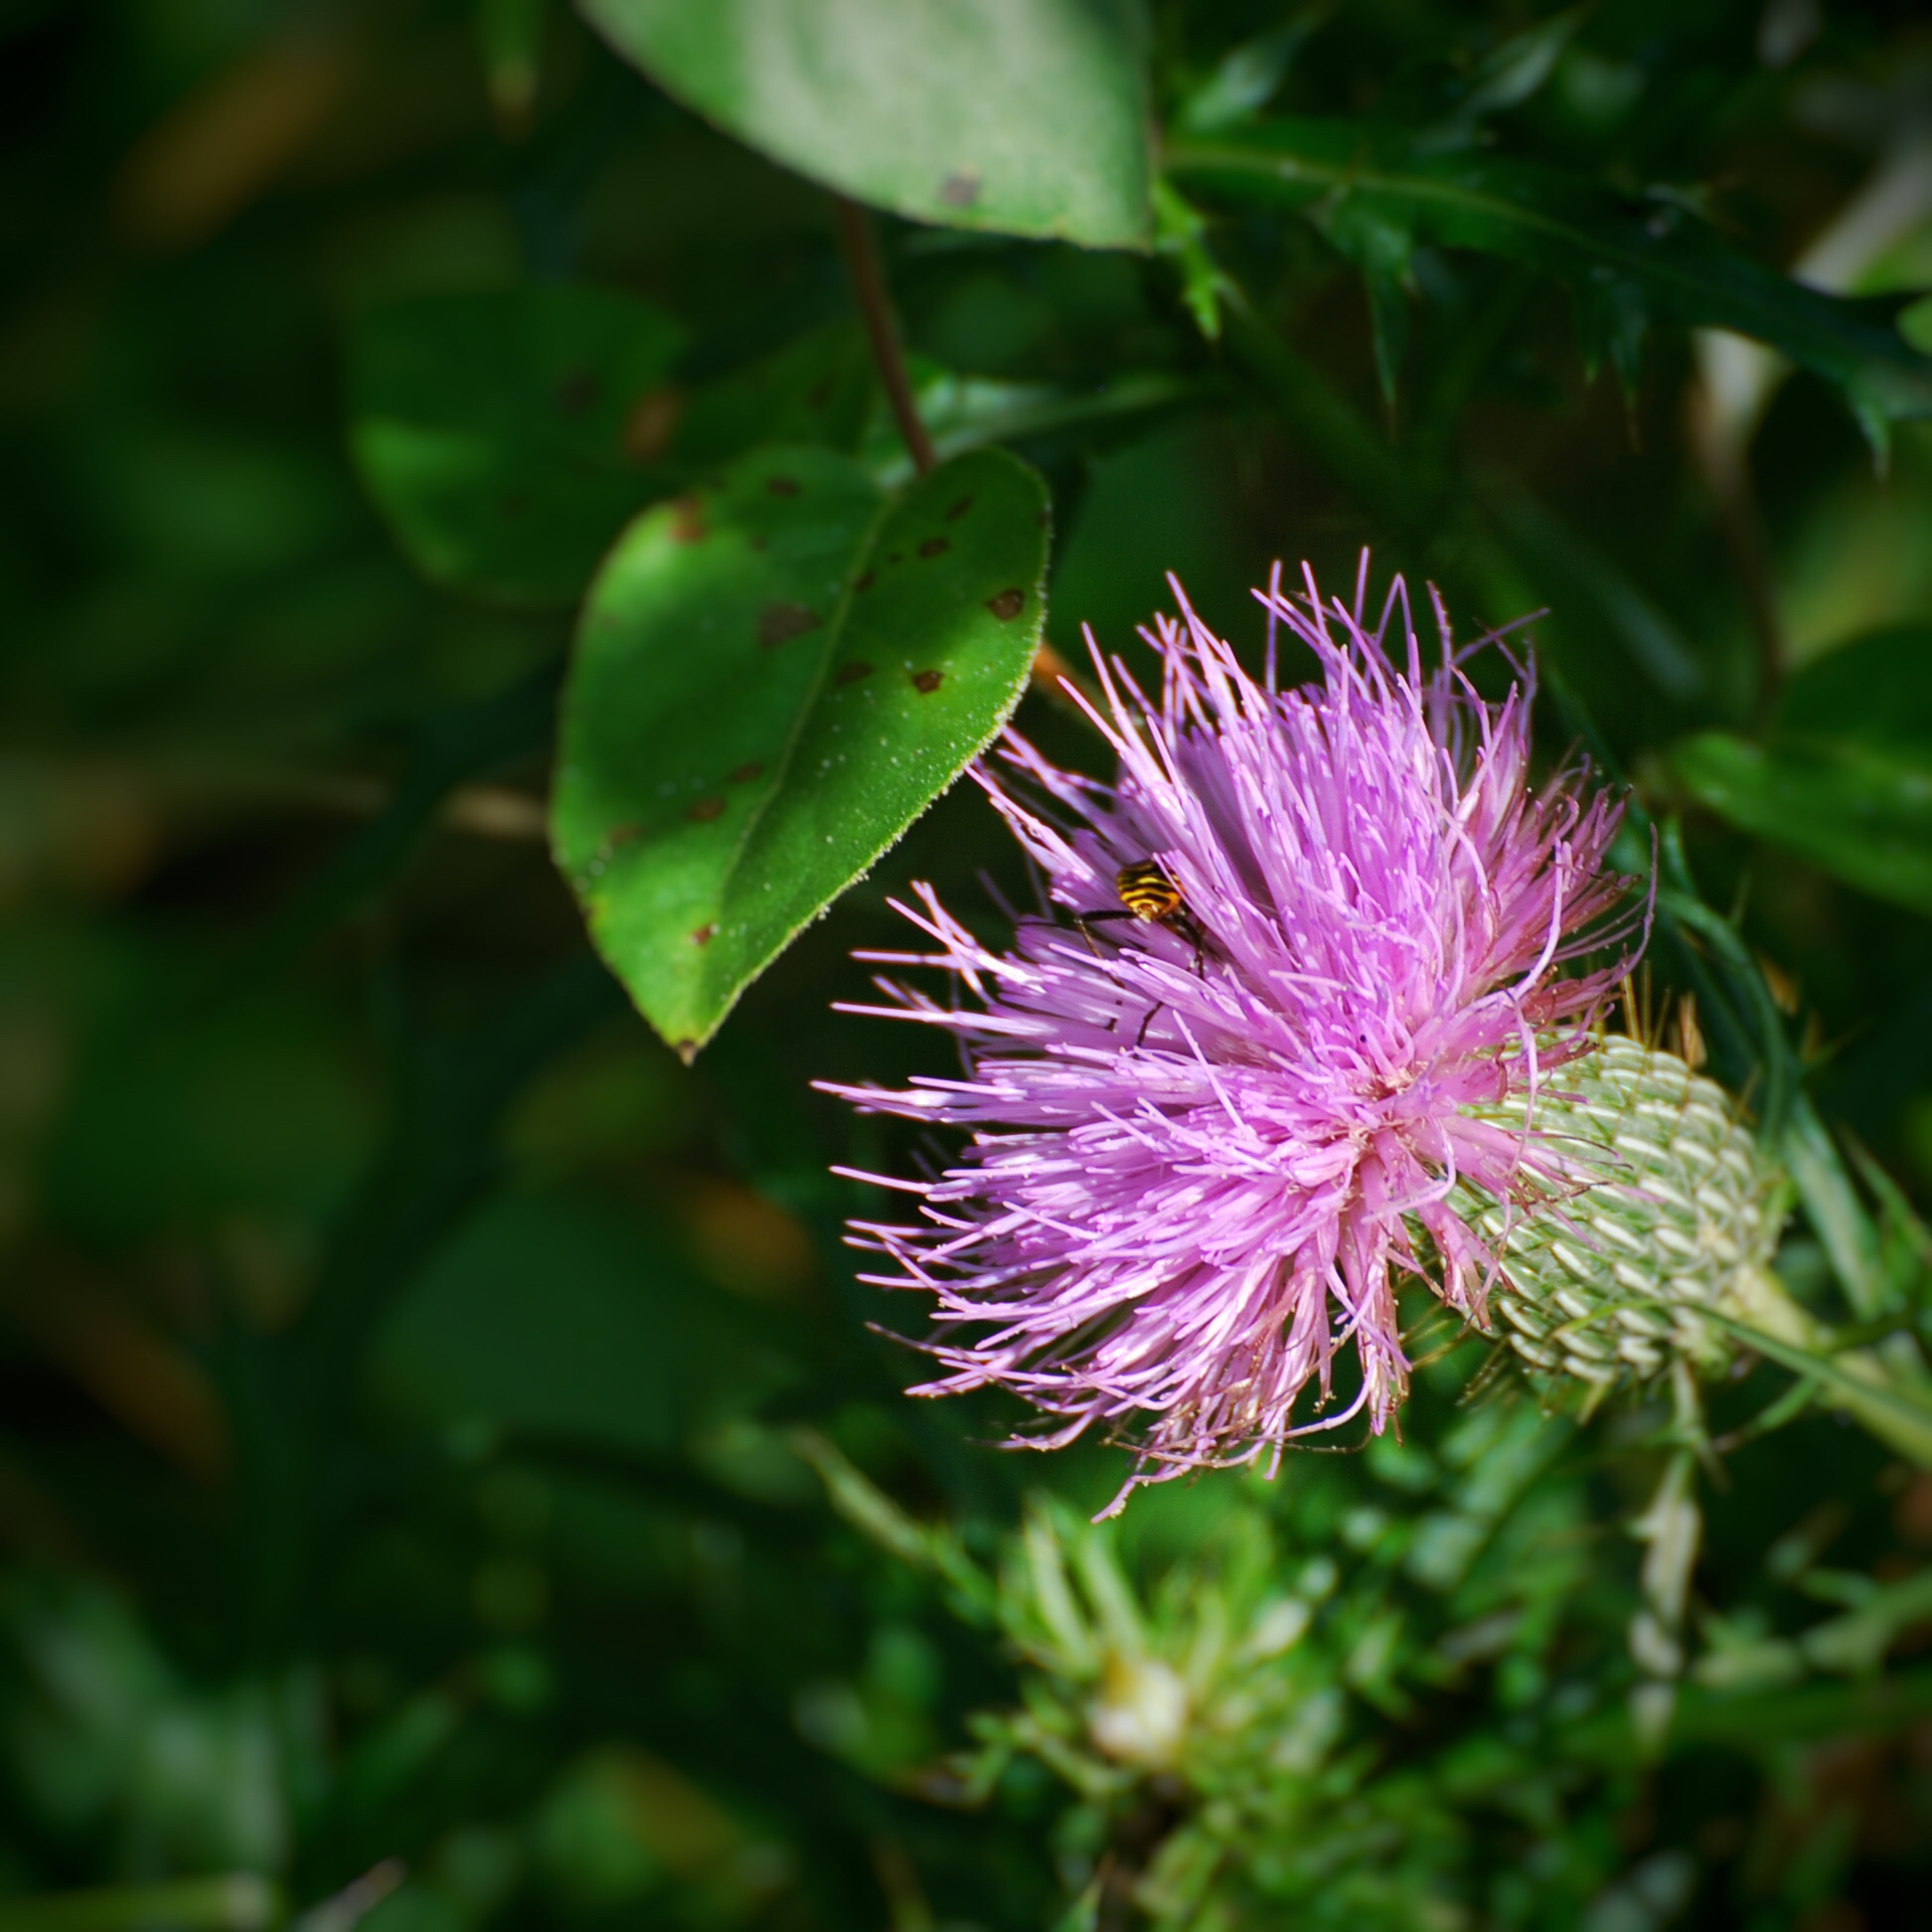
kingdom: Plantae
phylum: Tracheophyta
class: Magnoliopsida
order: Asterales
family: Asteraceae
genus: Cirsium
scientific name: Cirsium discolor
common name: Field thistle
